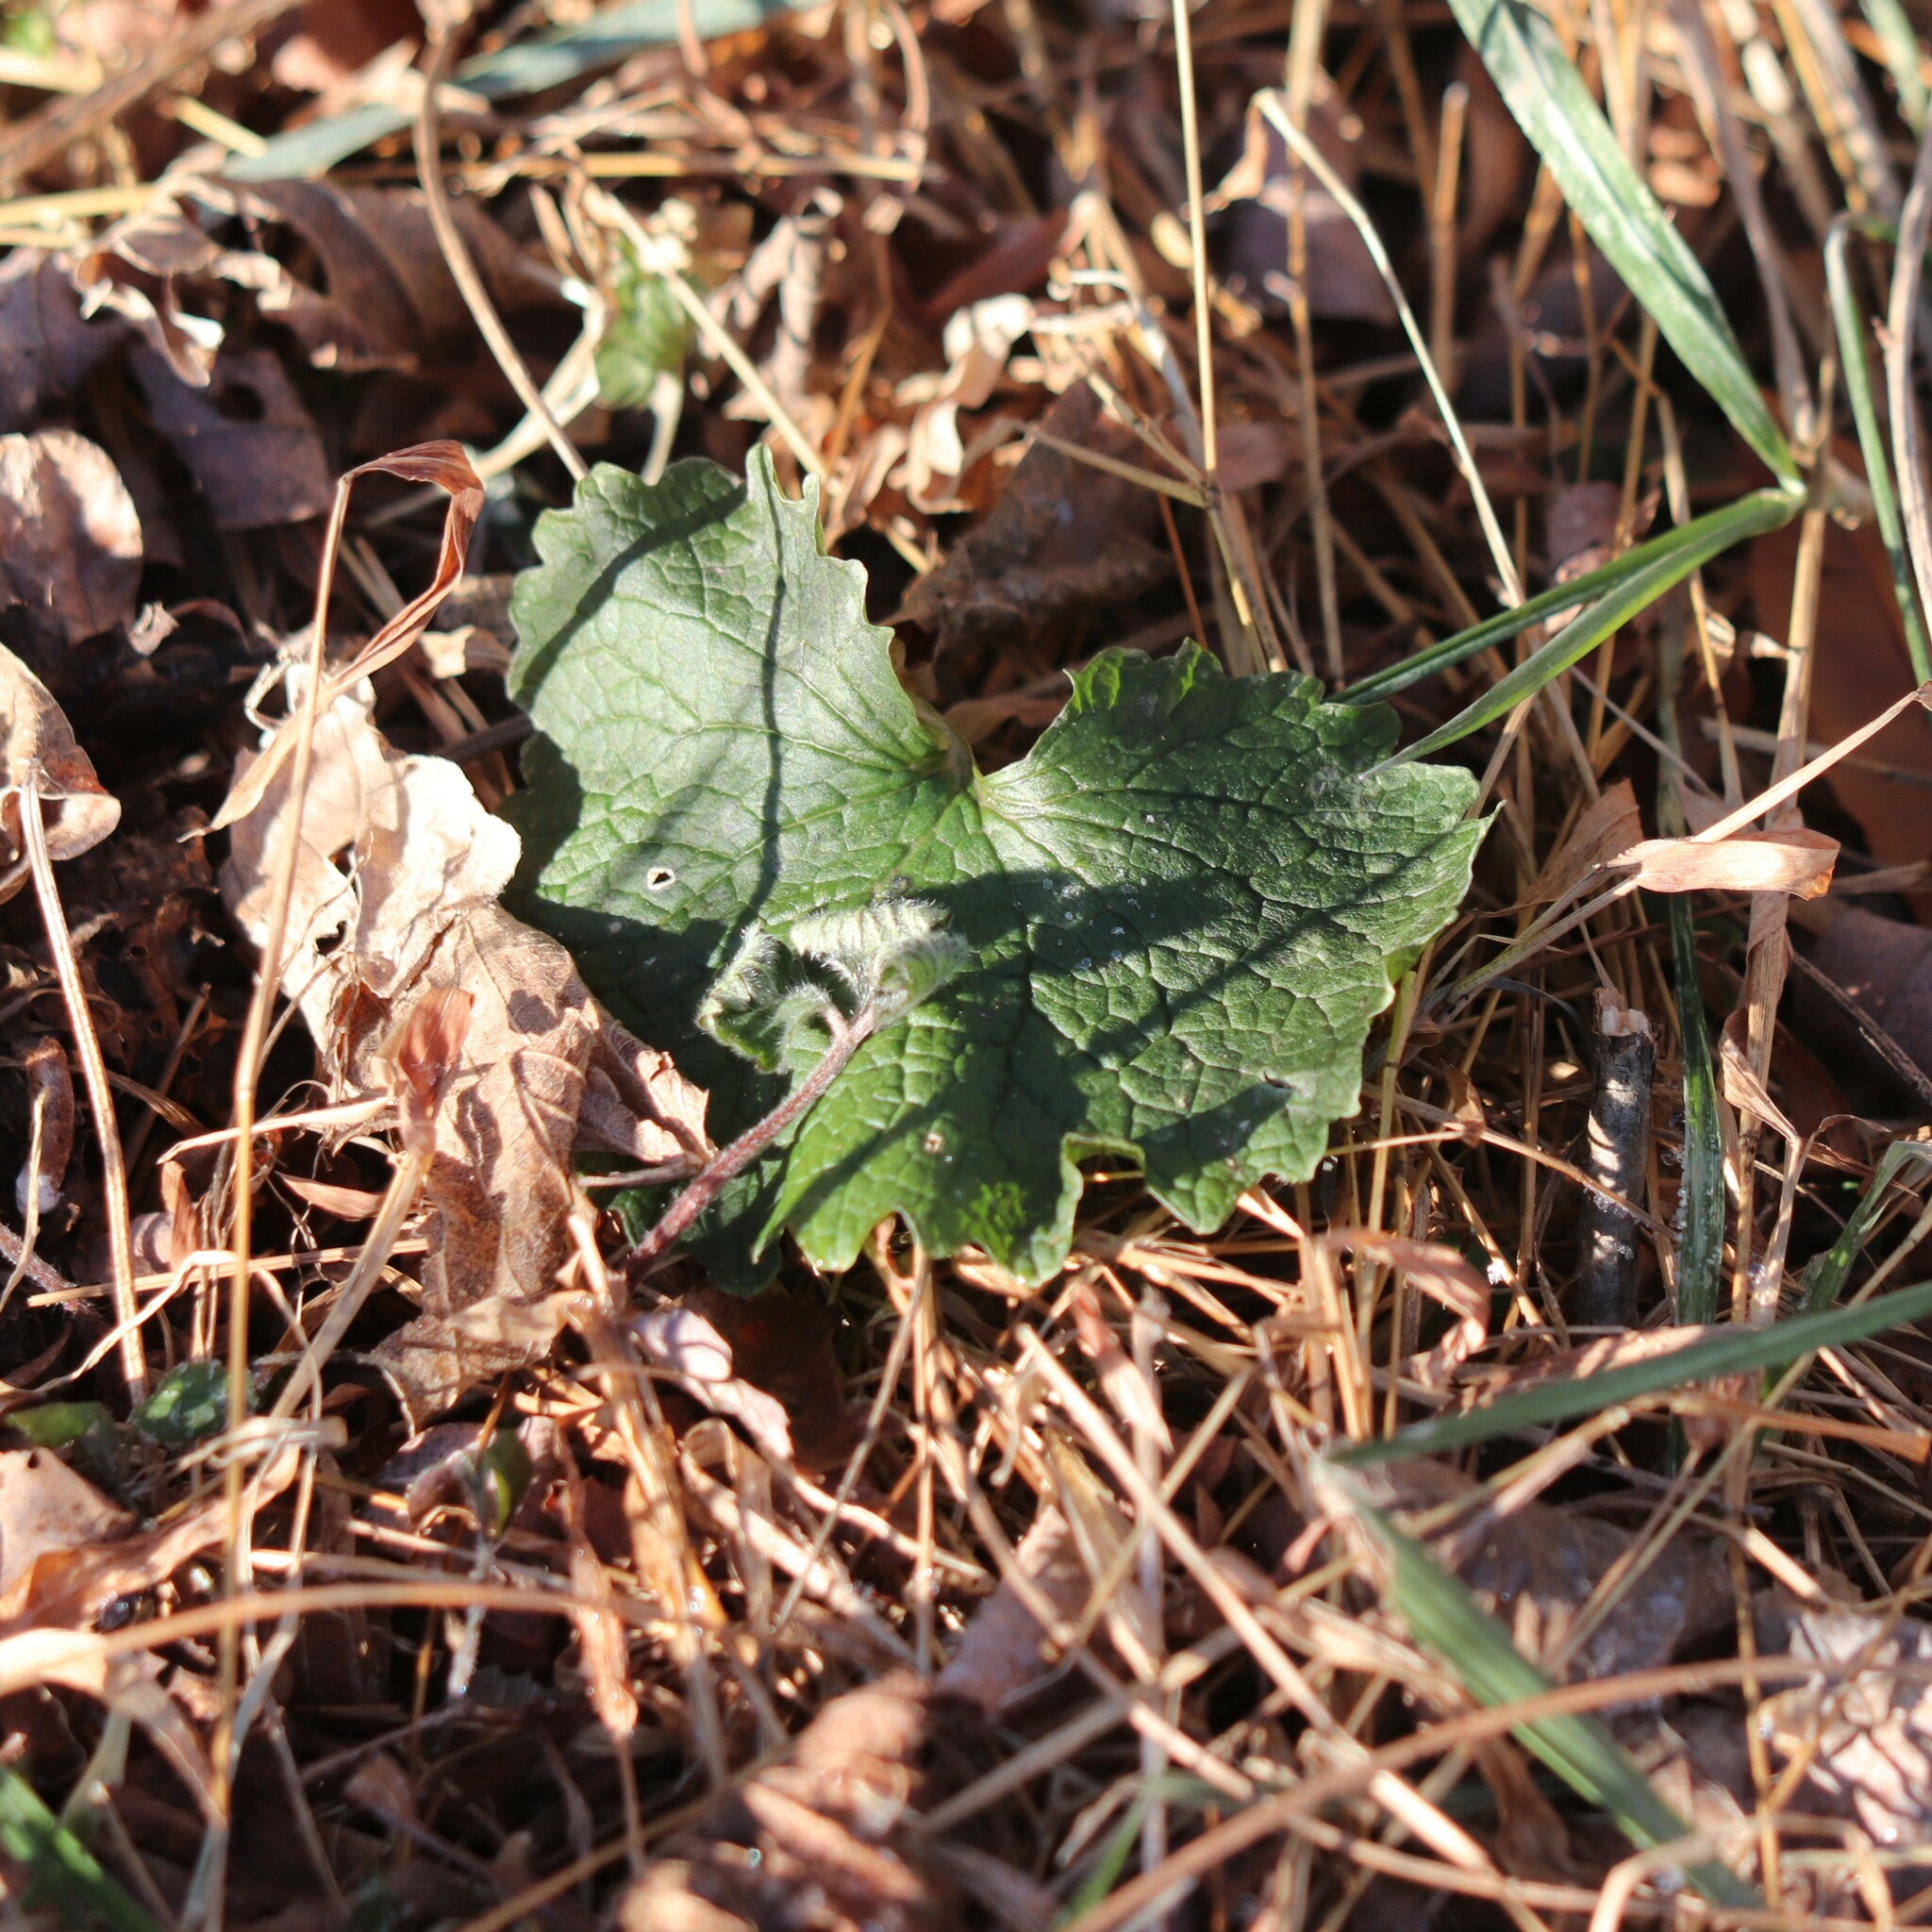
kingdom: Plantae
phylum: Tracheophyta
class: Magnoliopsida
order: Brassicales
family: Brassicaceae
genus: Alliaria
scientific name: Alliaria petiolata
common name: Garlic mustard
